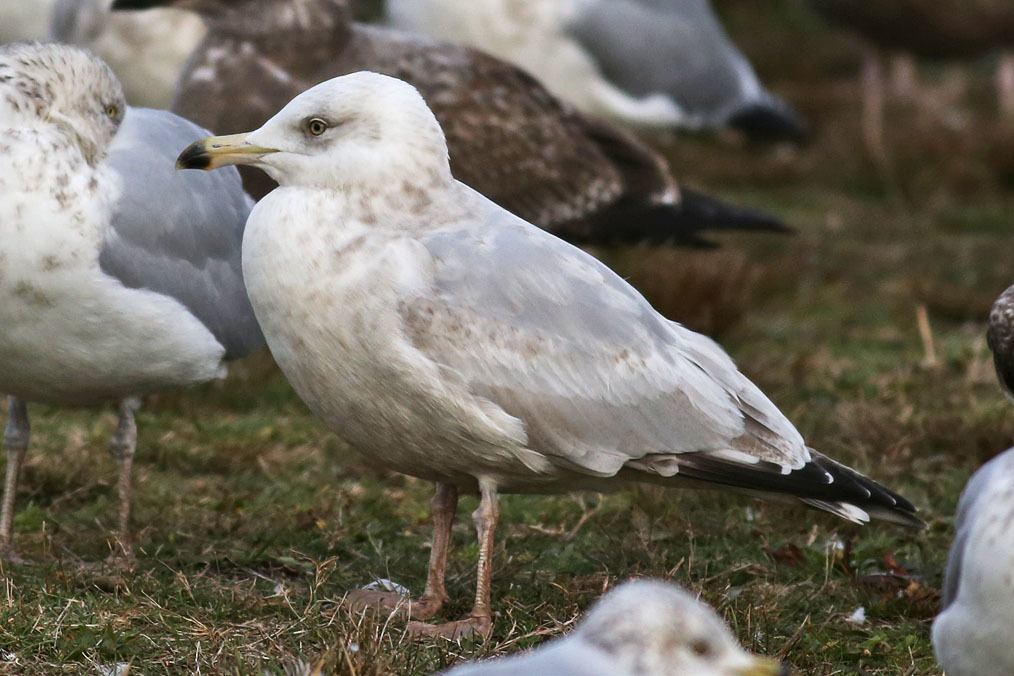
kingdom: Animalia
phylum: Chordata
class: Aves
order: Charadriiformes
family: Laridae
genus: Larus
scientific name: Larus argentatus
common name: Herring gull
